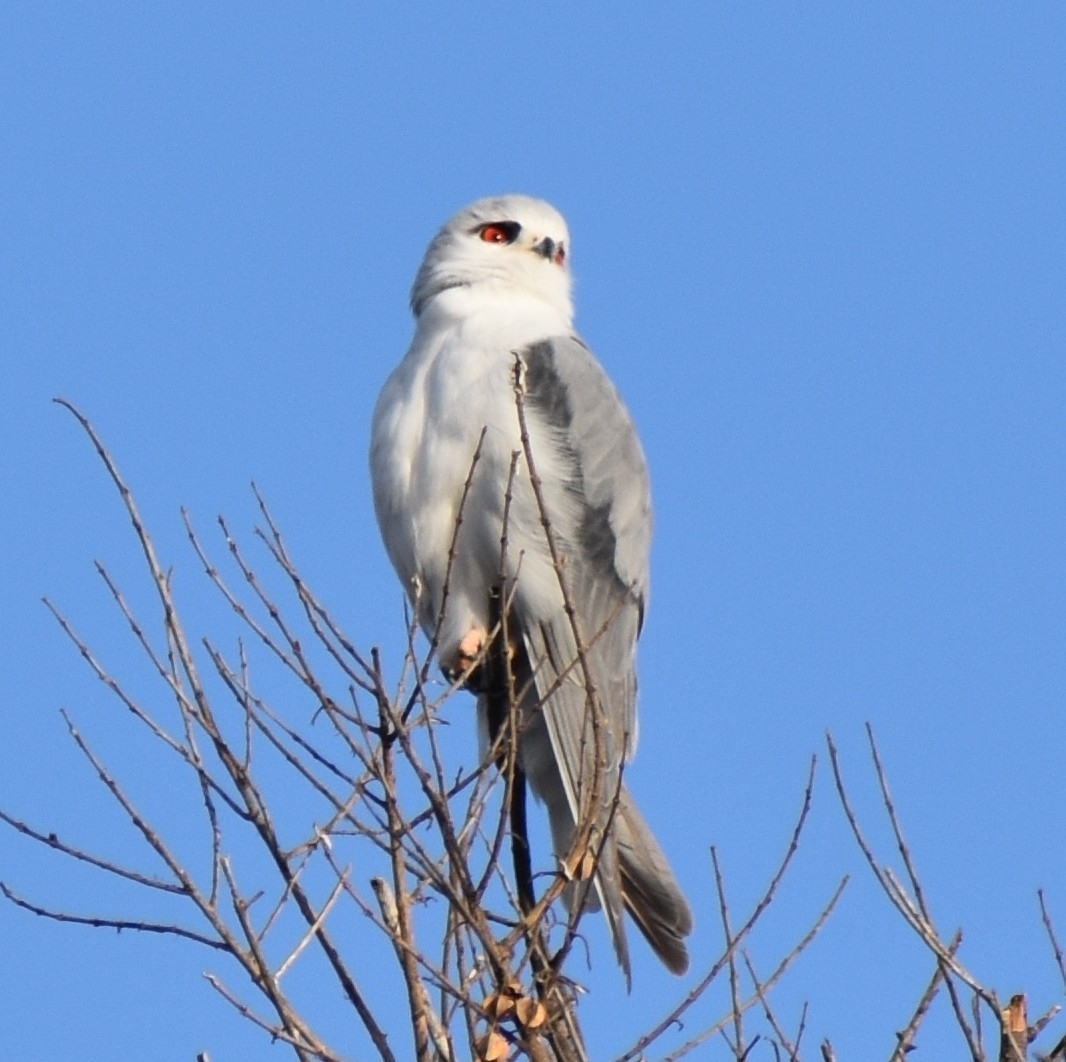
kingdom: Animalia
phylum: Chordata
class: Aves
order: Accipitriformes
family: Accipitridae
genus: Elanus
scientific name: Elanus caeruleus
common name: Black-winged kite
